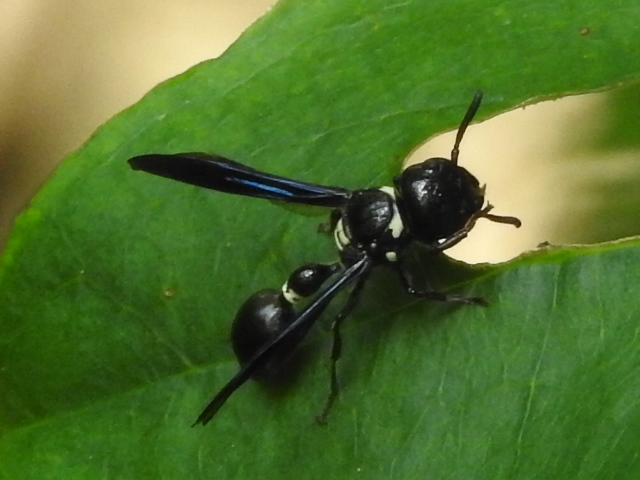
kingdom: Animalia
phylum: Arthropoda
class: Insecta
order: Hymenoptera
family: Eumenidae
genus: Zethus
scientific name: Zethus spinipes
